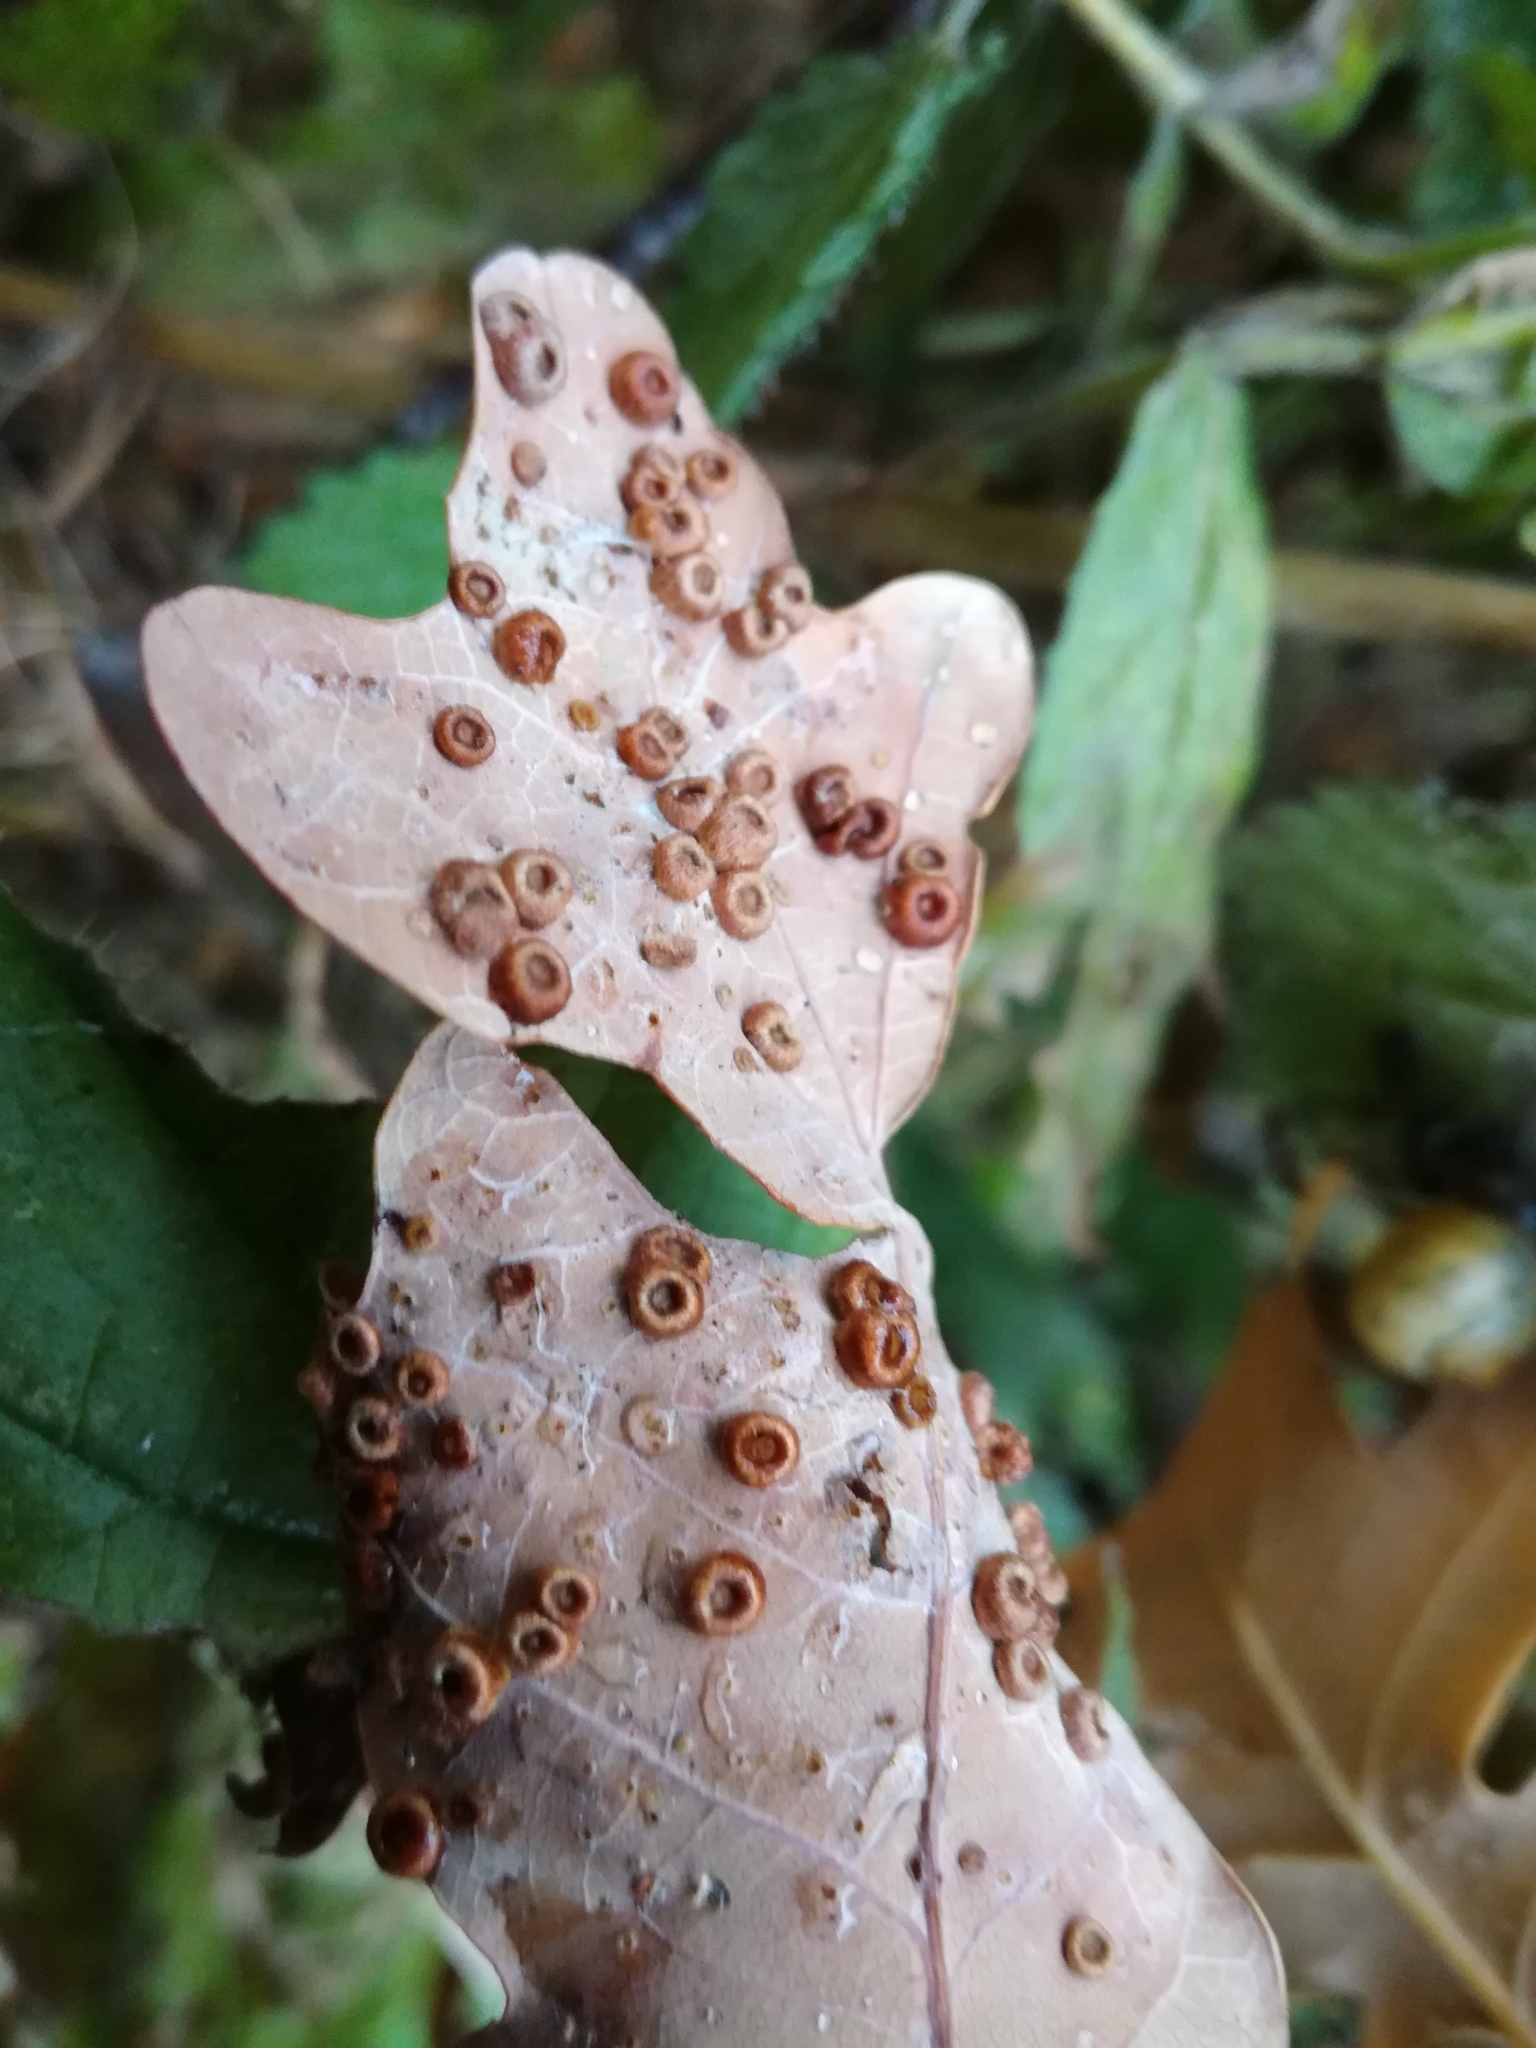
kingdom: Animalia
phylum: Arthropoda
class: Insecta
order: Hymenoptera
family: Cynipidae
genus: Neuroterus
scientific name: Neuroterus numismalis
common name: Silk-button spangle gall
